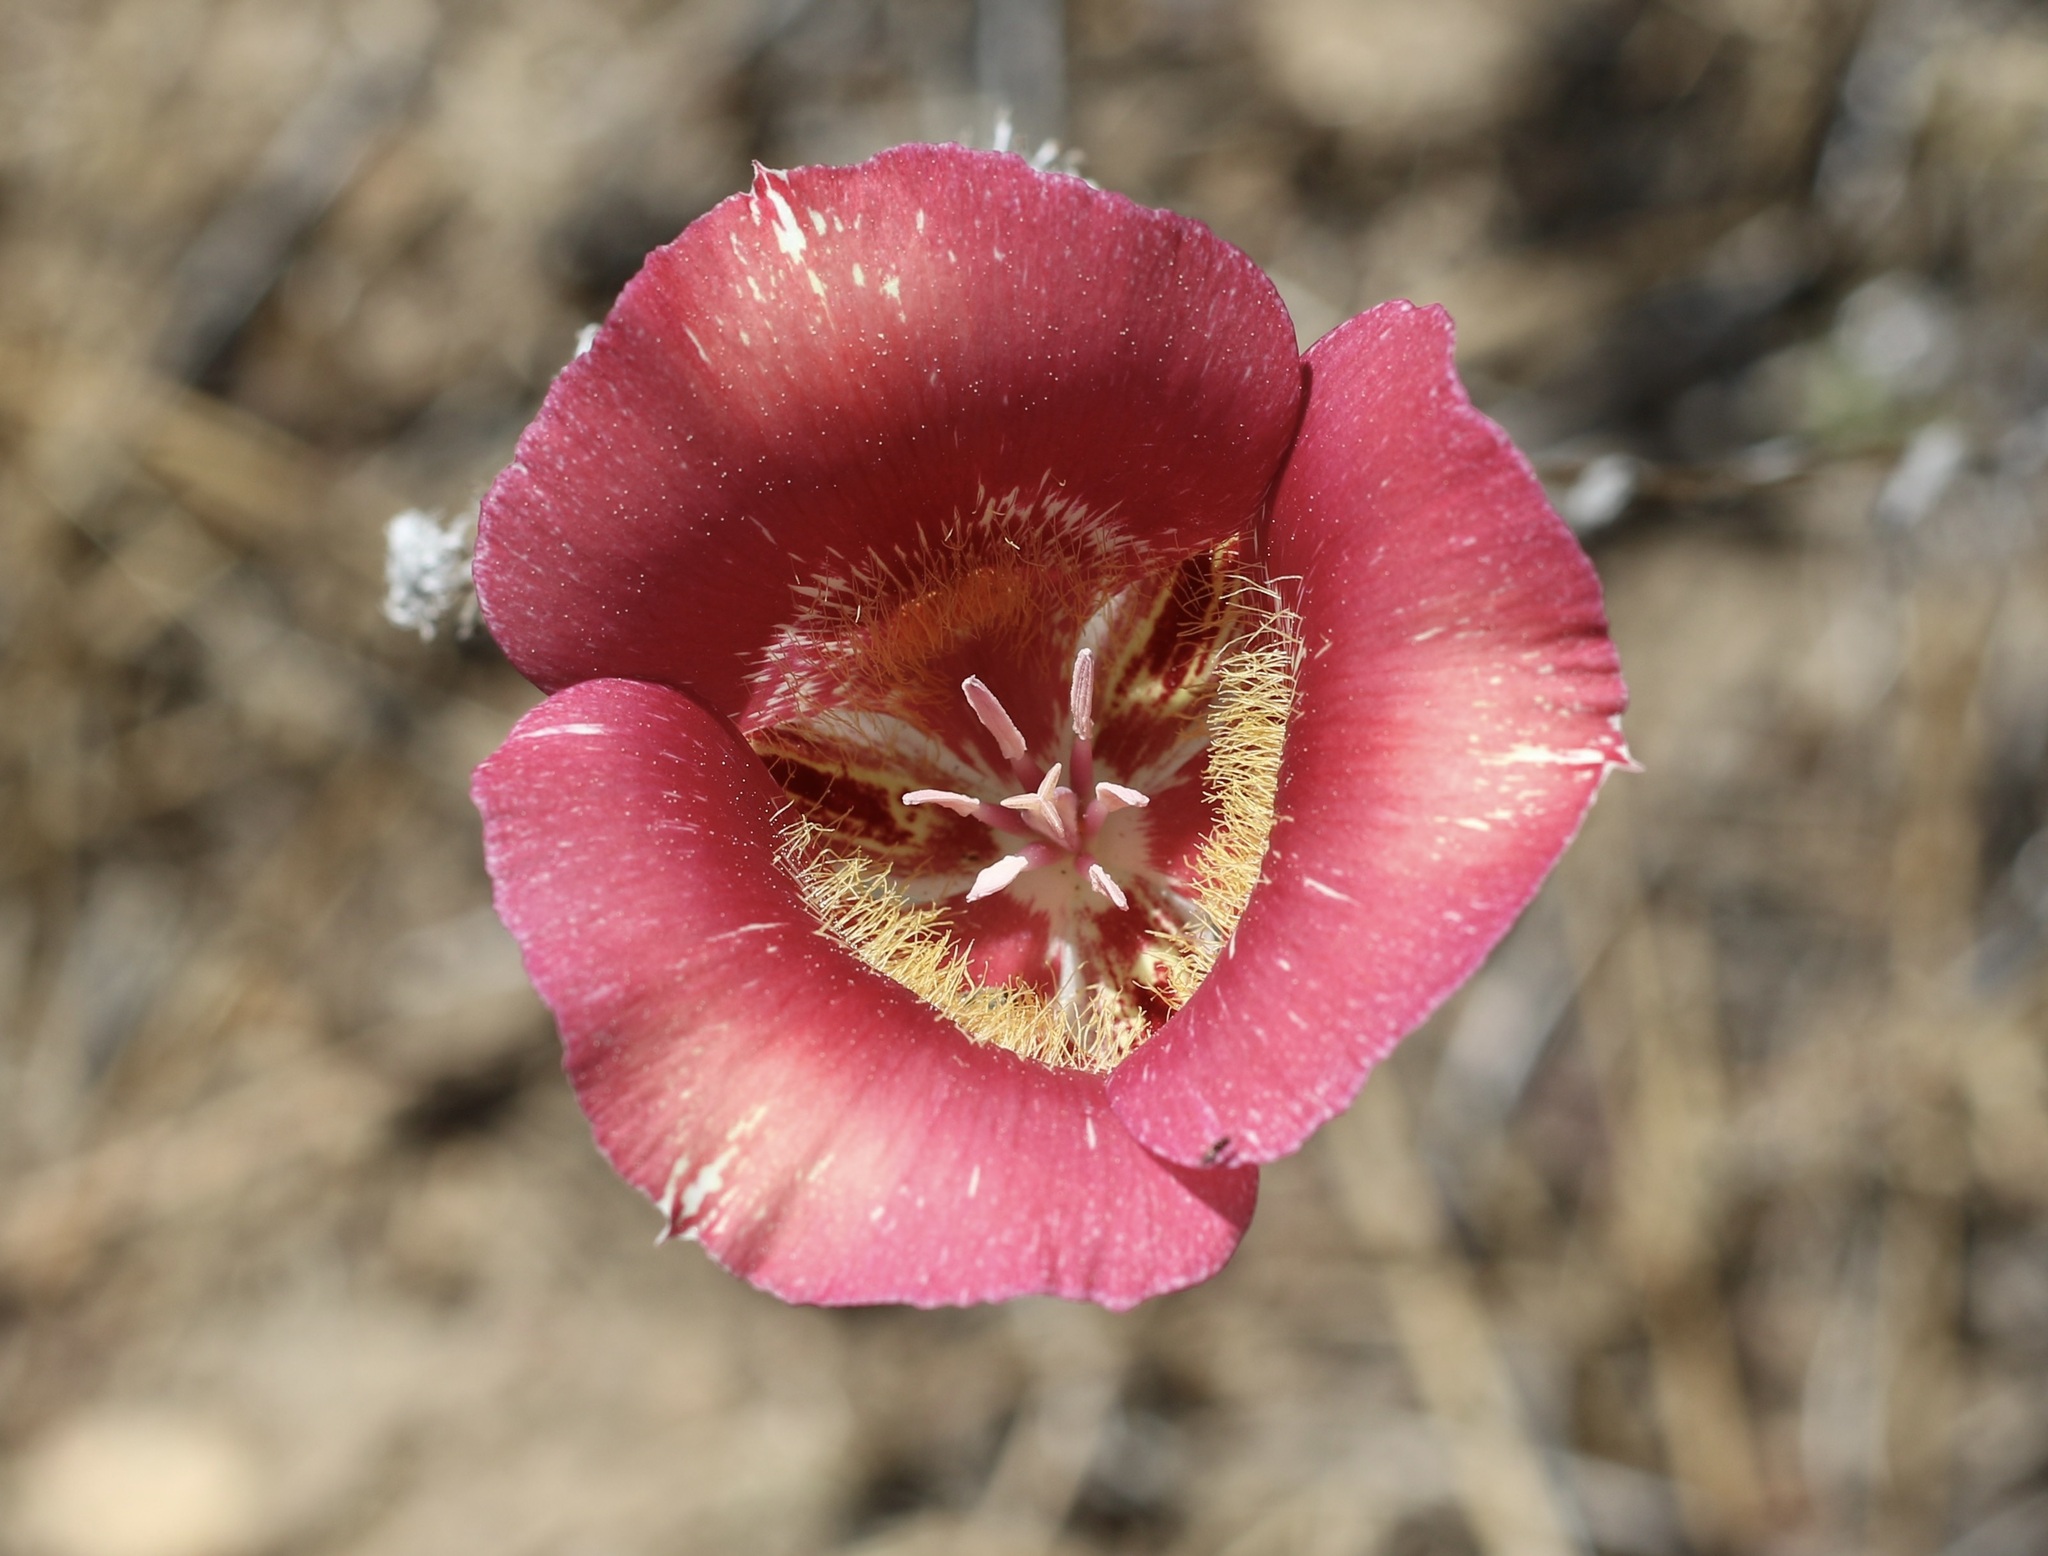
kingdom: Plantae
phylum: Tracheophyta
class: Liliopsida
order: Liliales
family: Liliaceae
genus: Calochortus
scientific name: Calochortus venustus
